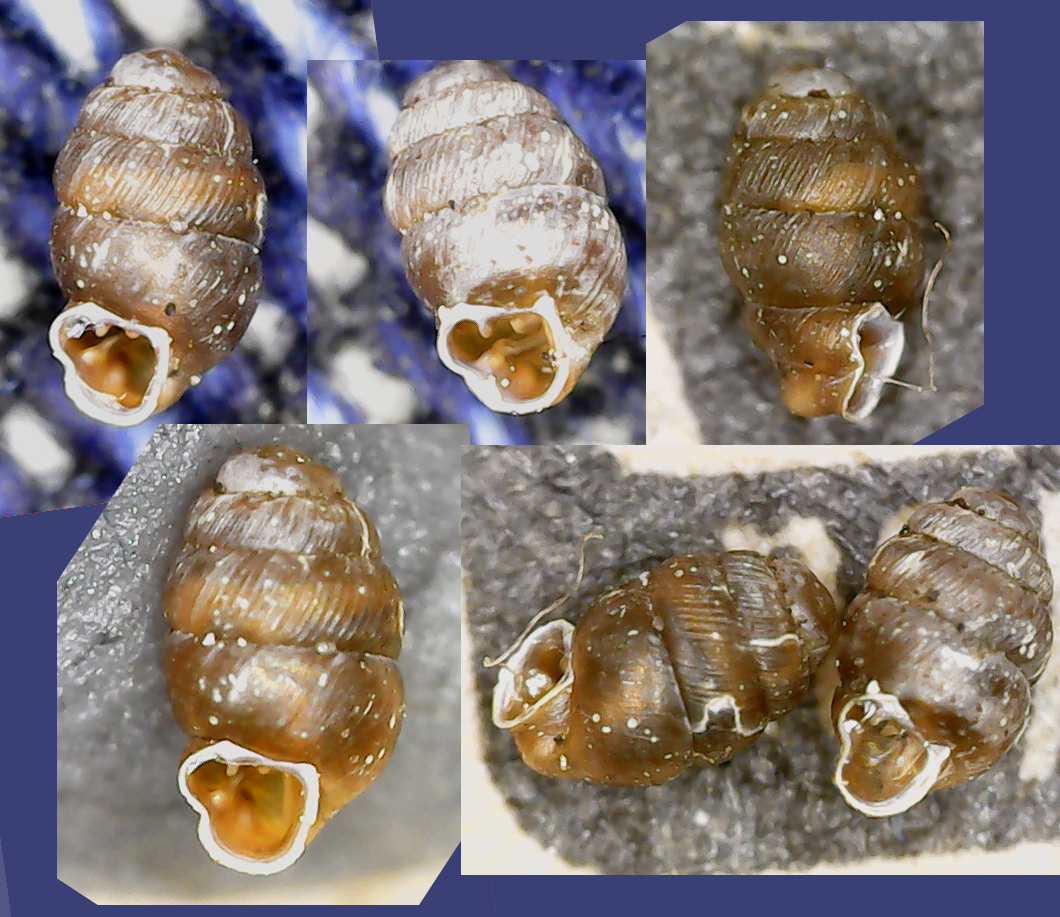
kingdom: Animalia
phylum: Mollusca
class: Gastropoda
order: Stylommatophora
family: Vertiginidae
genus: Vertigo
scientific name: Vertigo angustior
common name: Narrow-mouthed whorl snail
